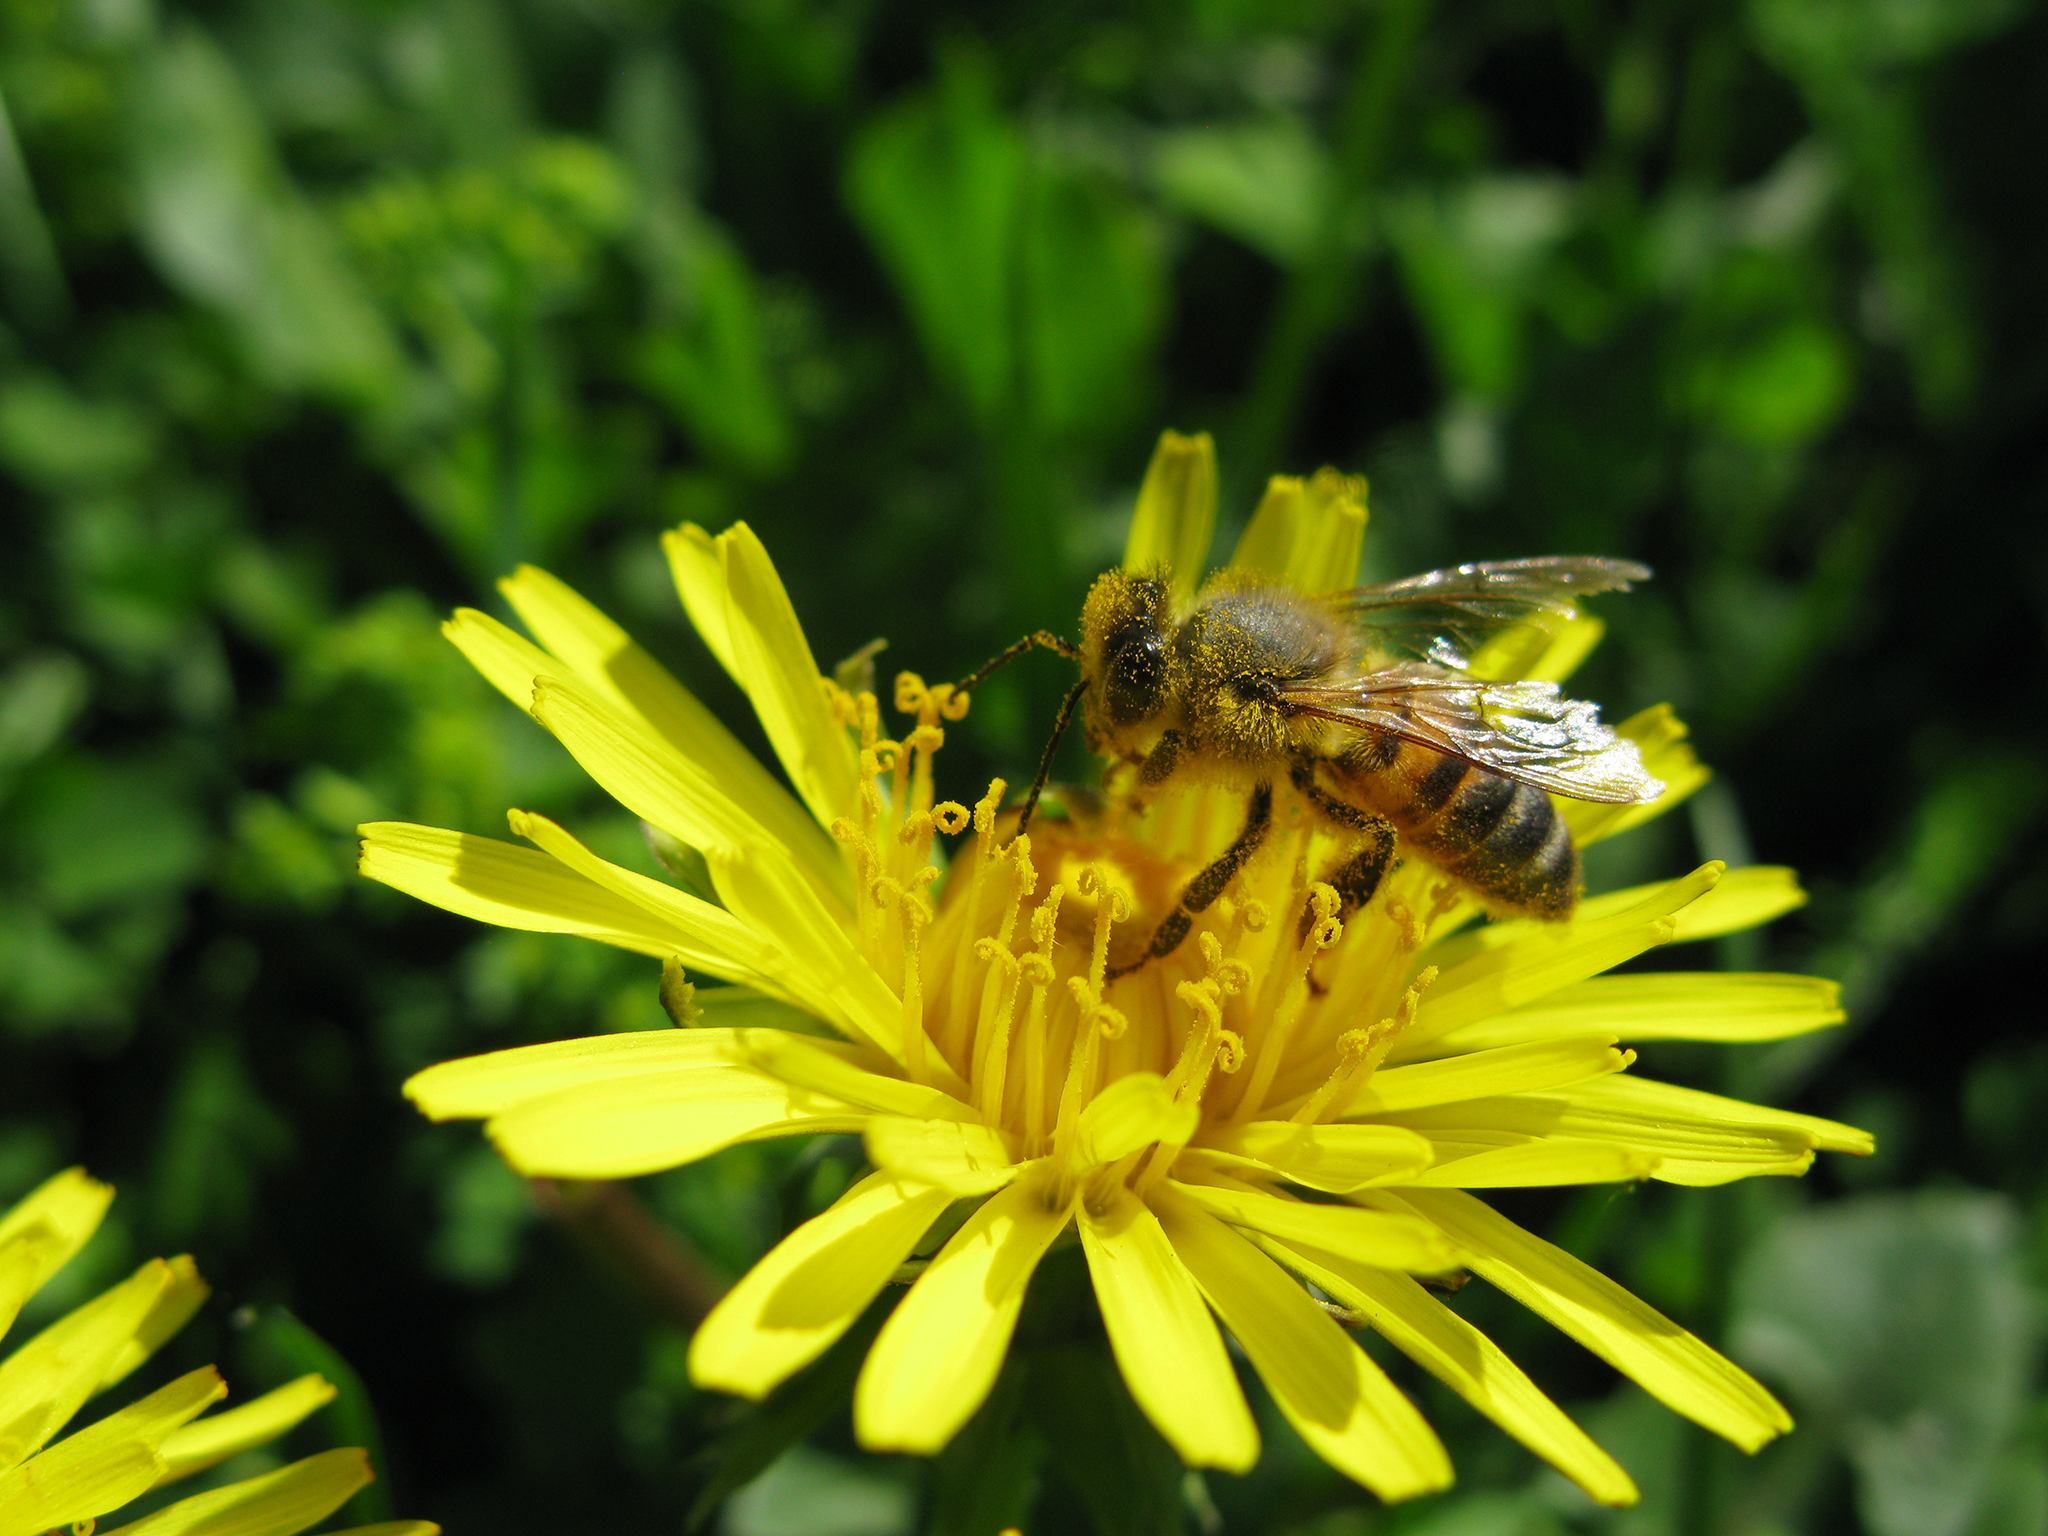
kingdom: Animalia
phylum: Arthropoda
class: Insecta
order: Hymenoptera
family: Apidae
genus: Apis
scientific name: Apis mellifera
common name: Honey bee
